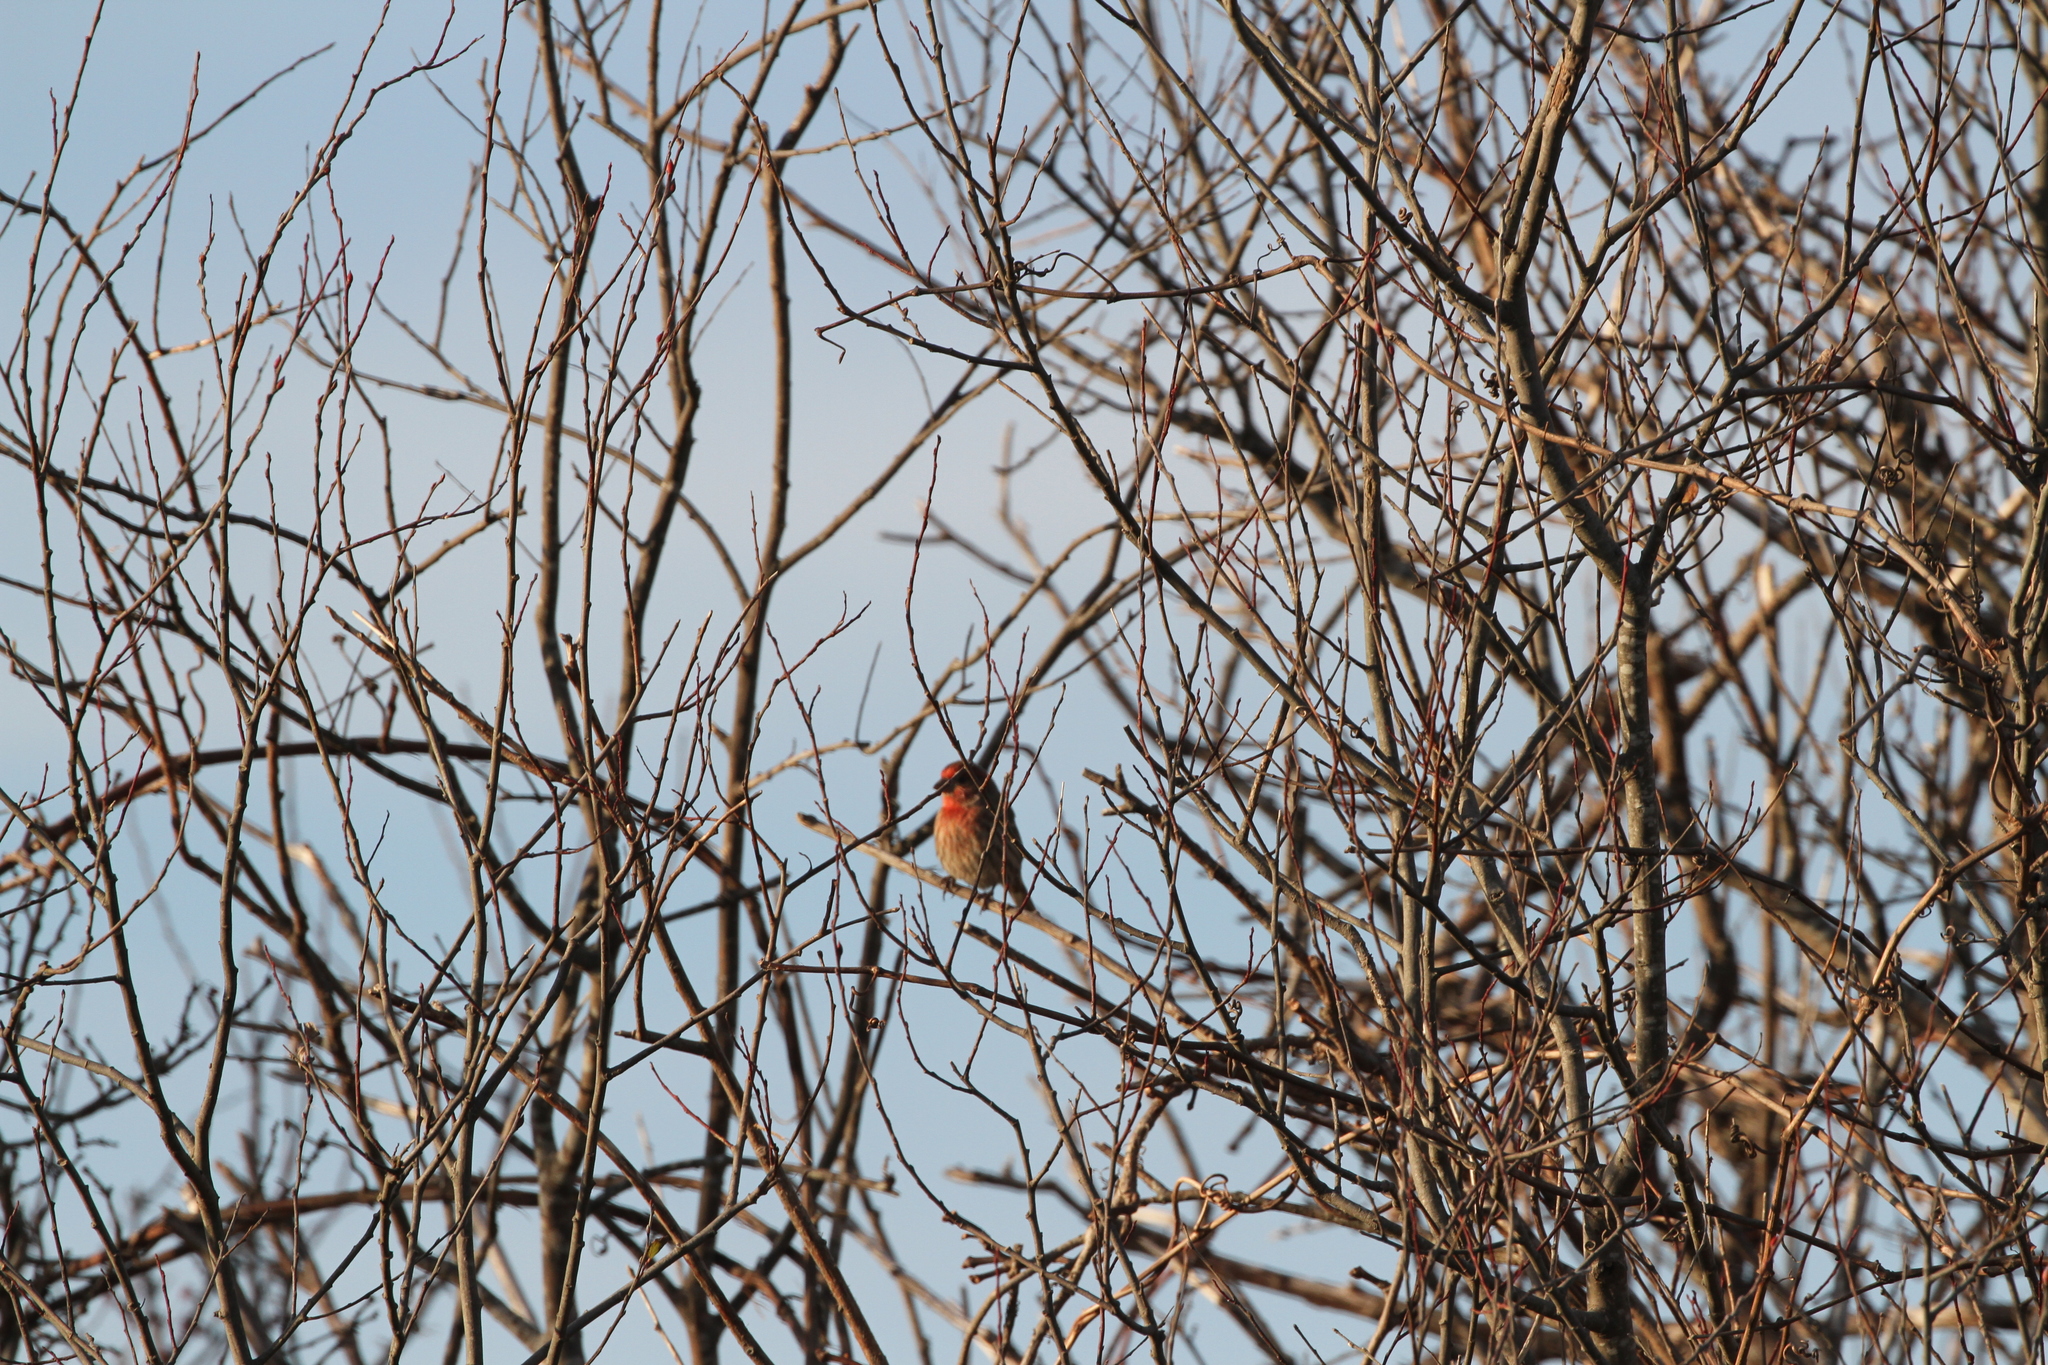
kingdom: Animalia
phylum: Chordata
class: Aves
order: Passeriformes
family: Fringillidae
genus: Haemorhous
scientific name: Haemorhous mexicanus
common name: House finch
